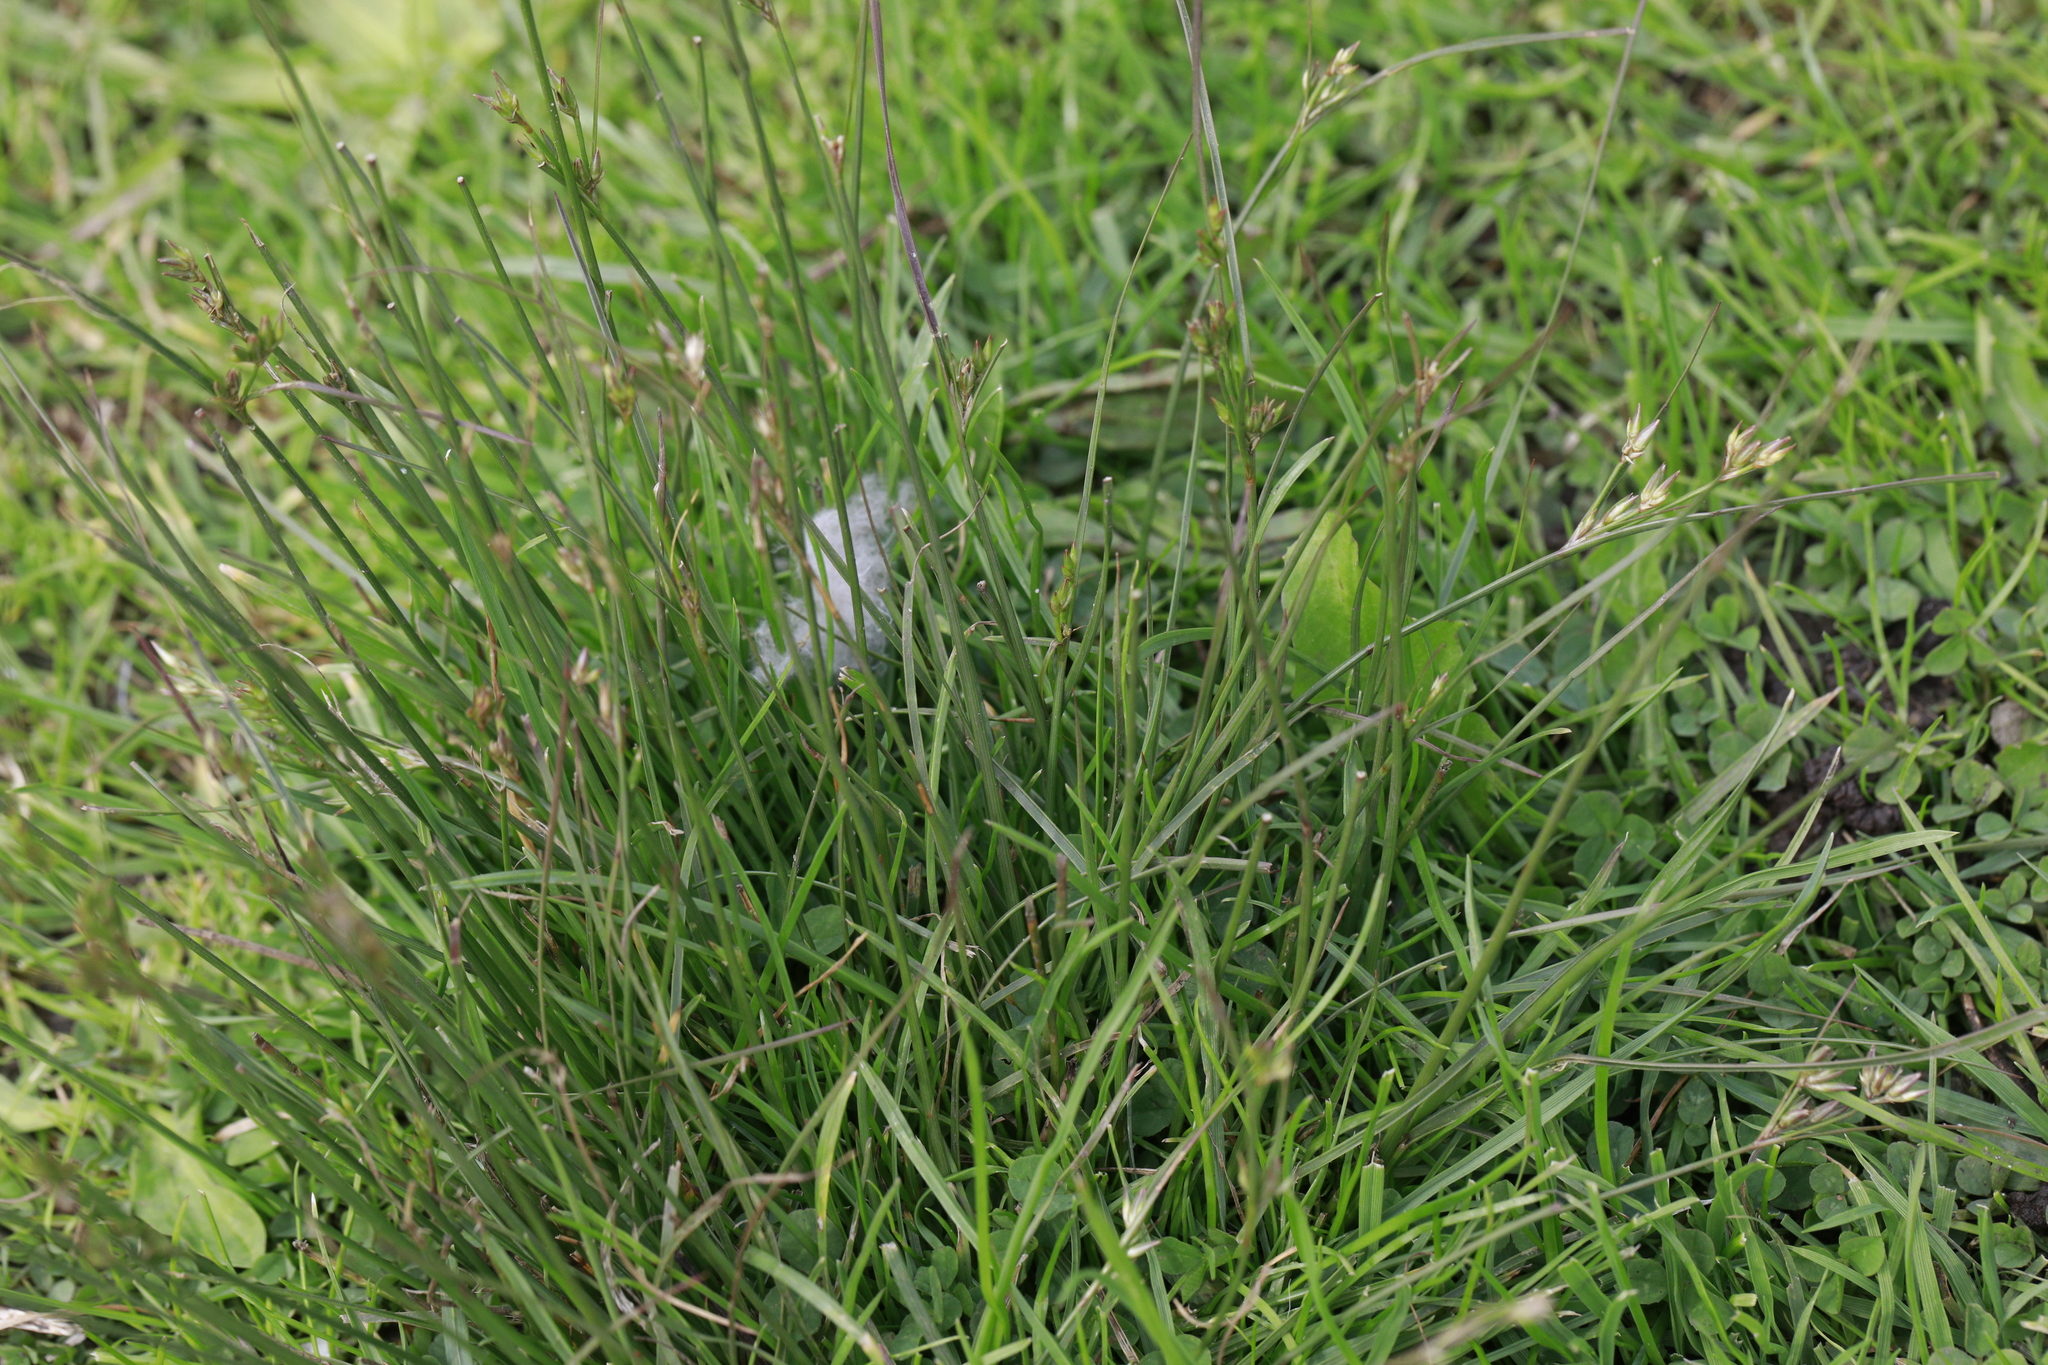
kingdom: Plantae
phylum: Tracheophyta
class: Liliopsida
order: Poales
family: Juncaceae
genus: Juncus
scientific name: Juncus tenuis
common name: Slender rush
